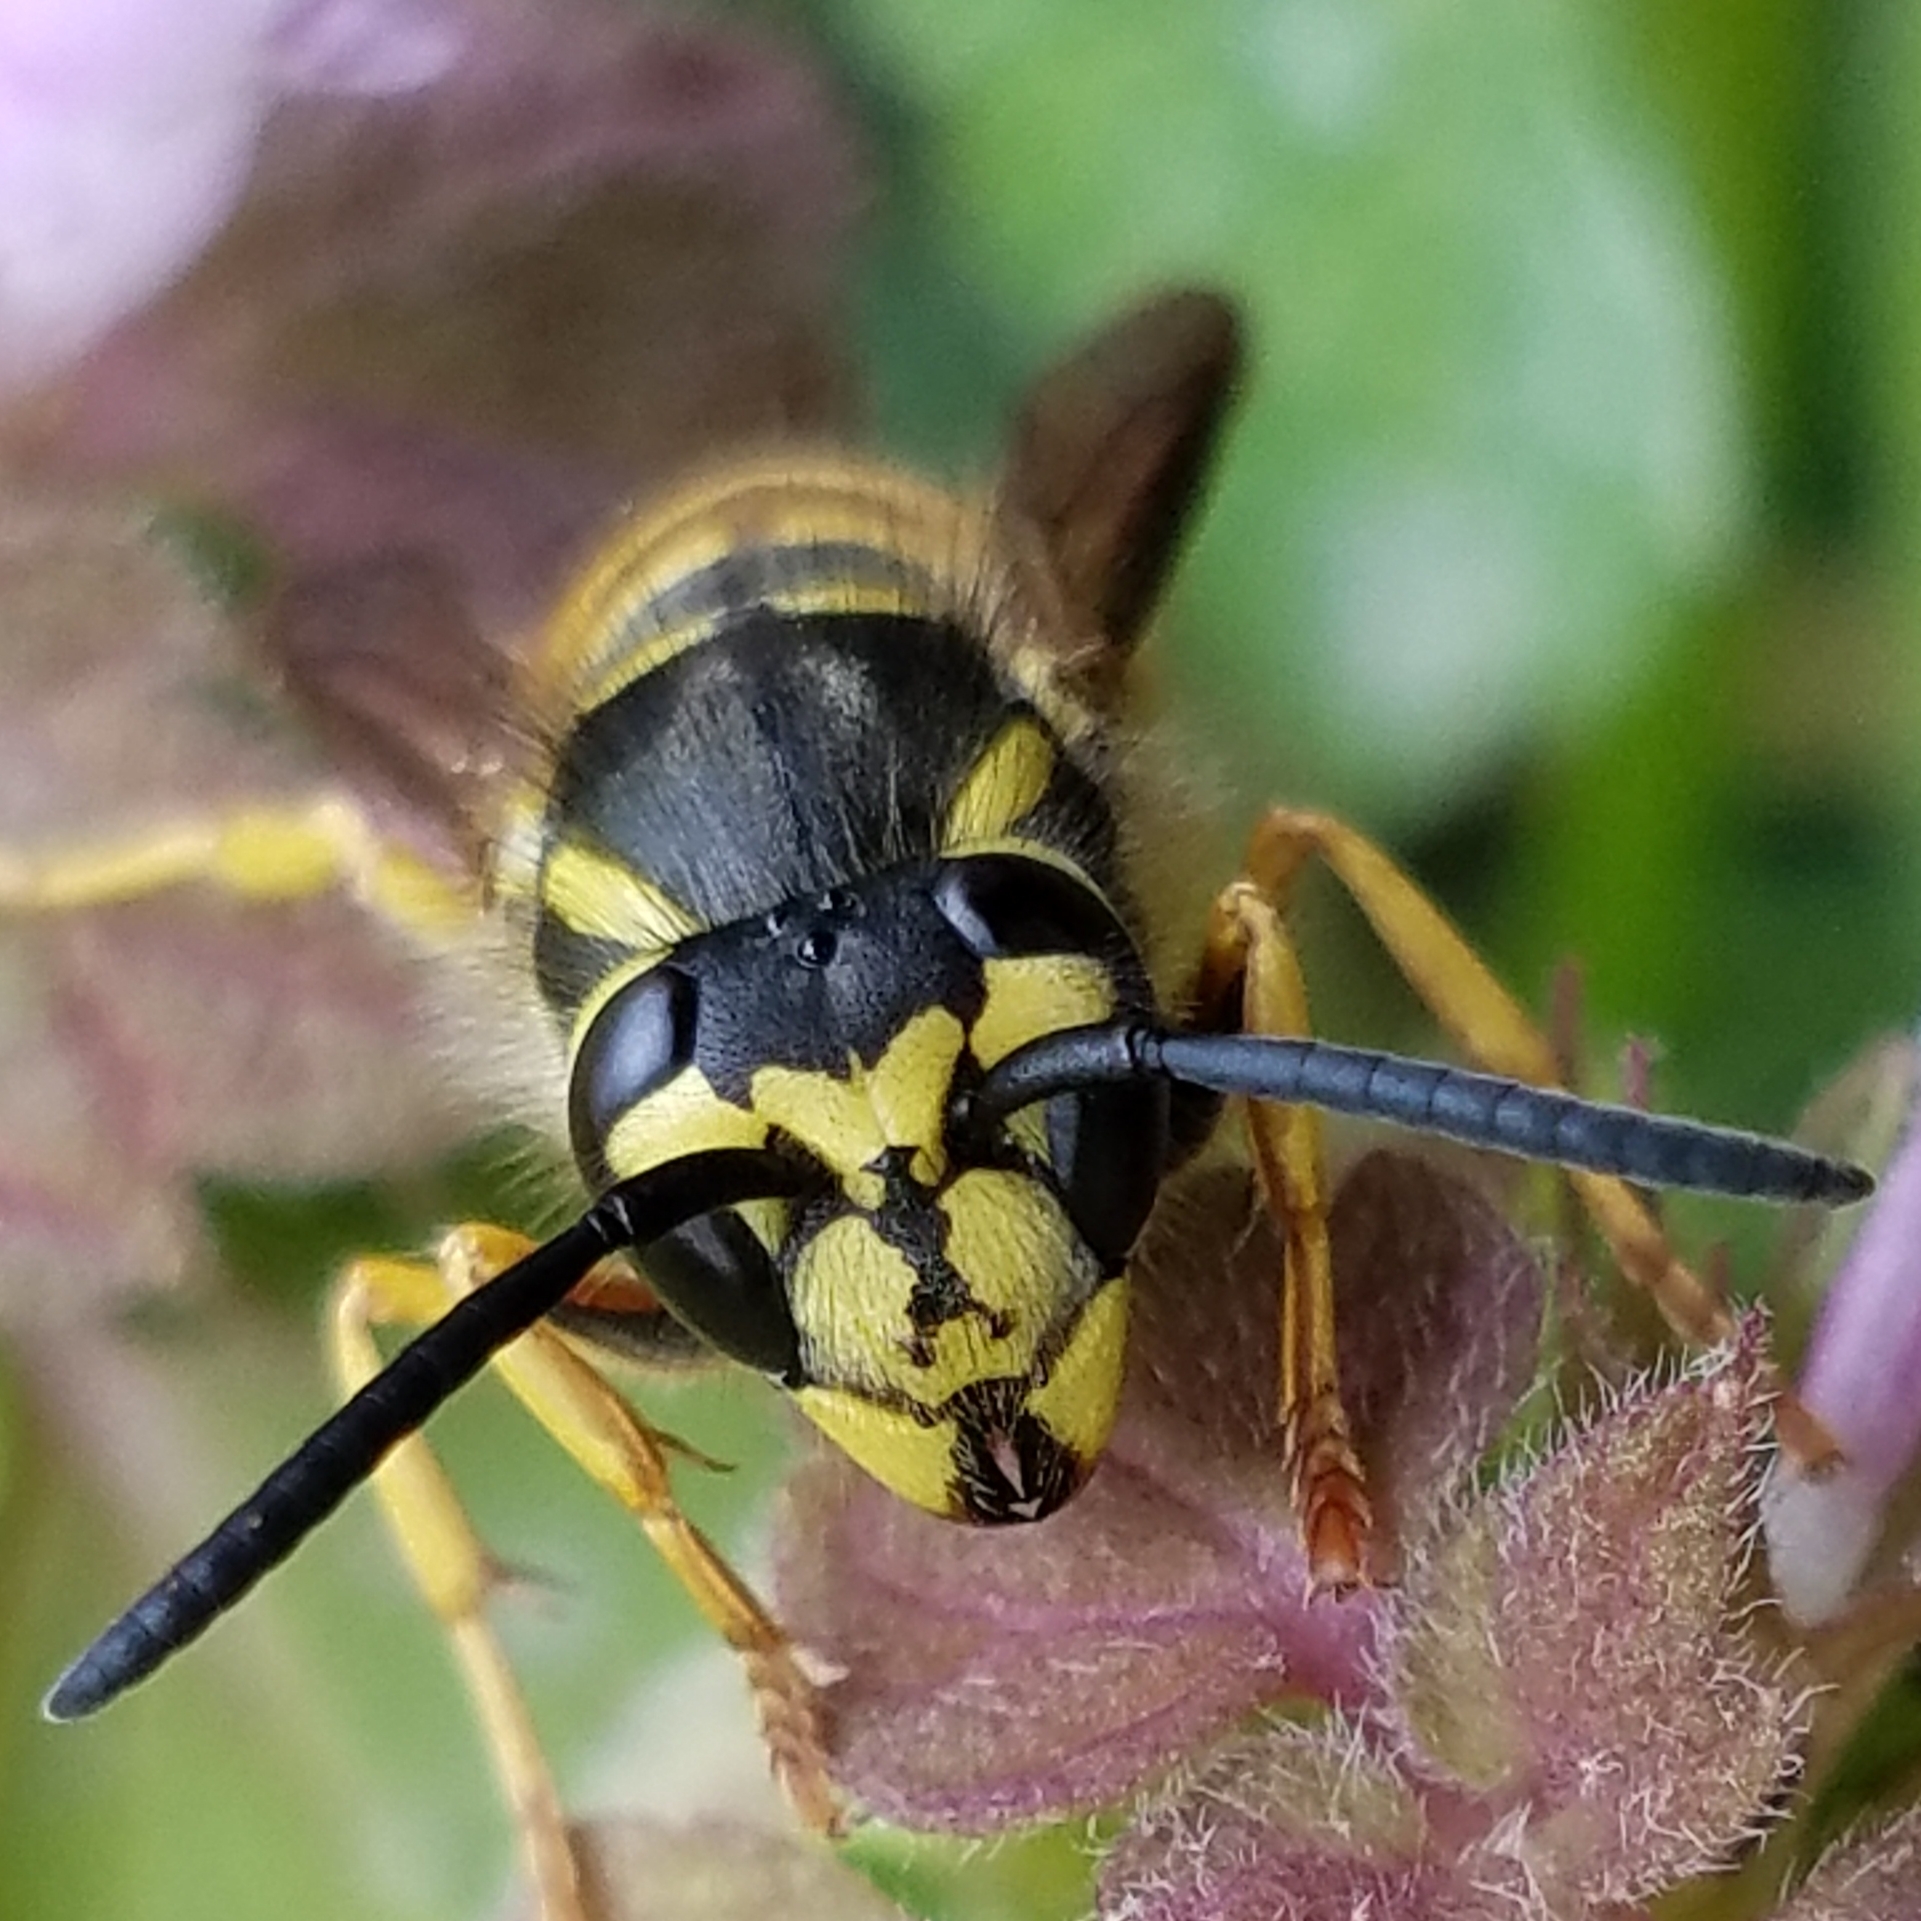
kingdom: Animalia
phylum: Arthropoda
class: Insecta
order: Hymenoptera
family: Vespidae
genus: Vespula
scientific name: Vespula maculifrons
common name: Eastern yellowjacket
